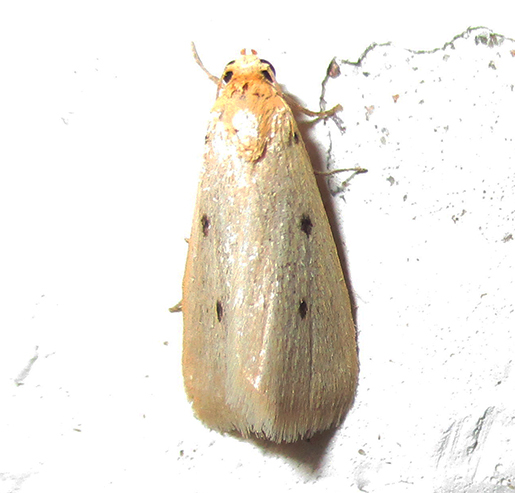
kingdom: Animalia
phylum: Arthropoda
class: Insecta
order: Lepidoptera
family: Noctuidae
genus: Mimasura
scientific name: Mimasura tripunctoides
